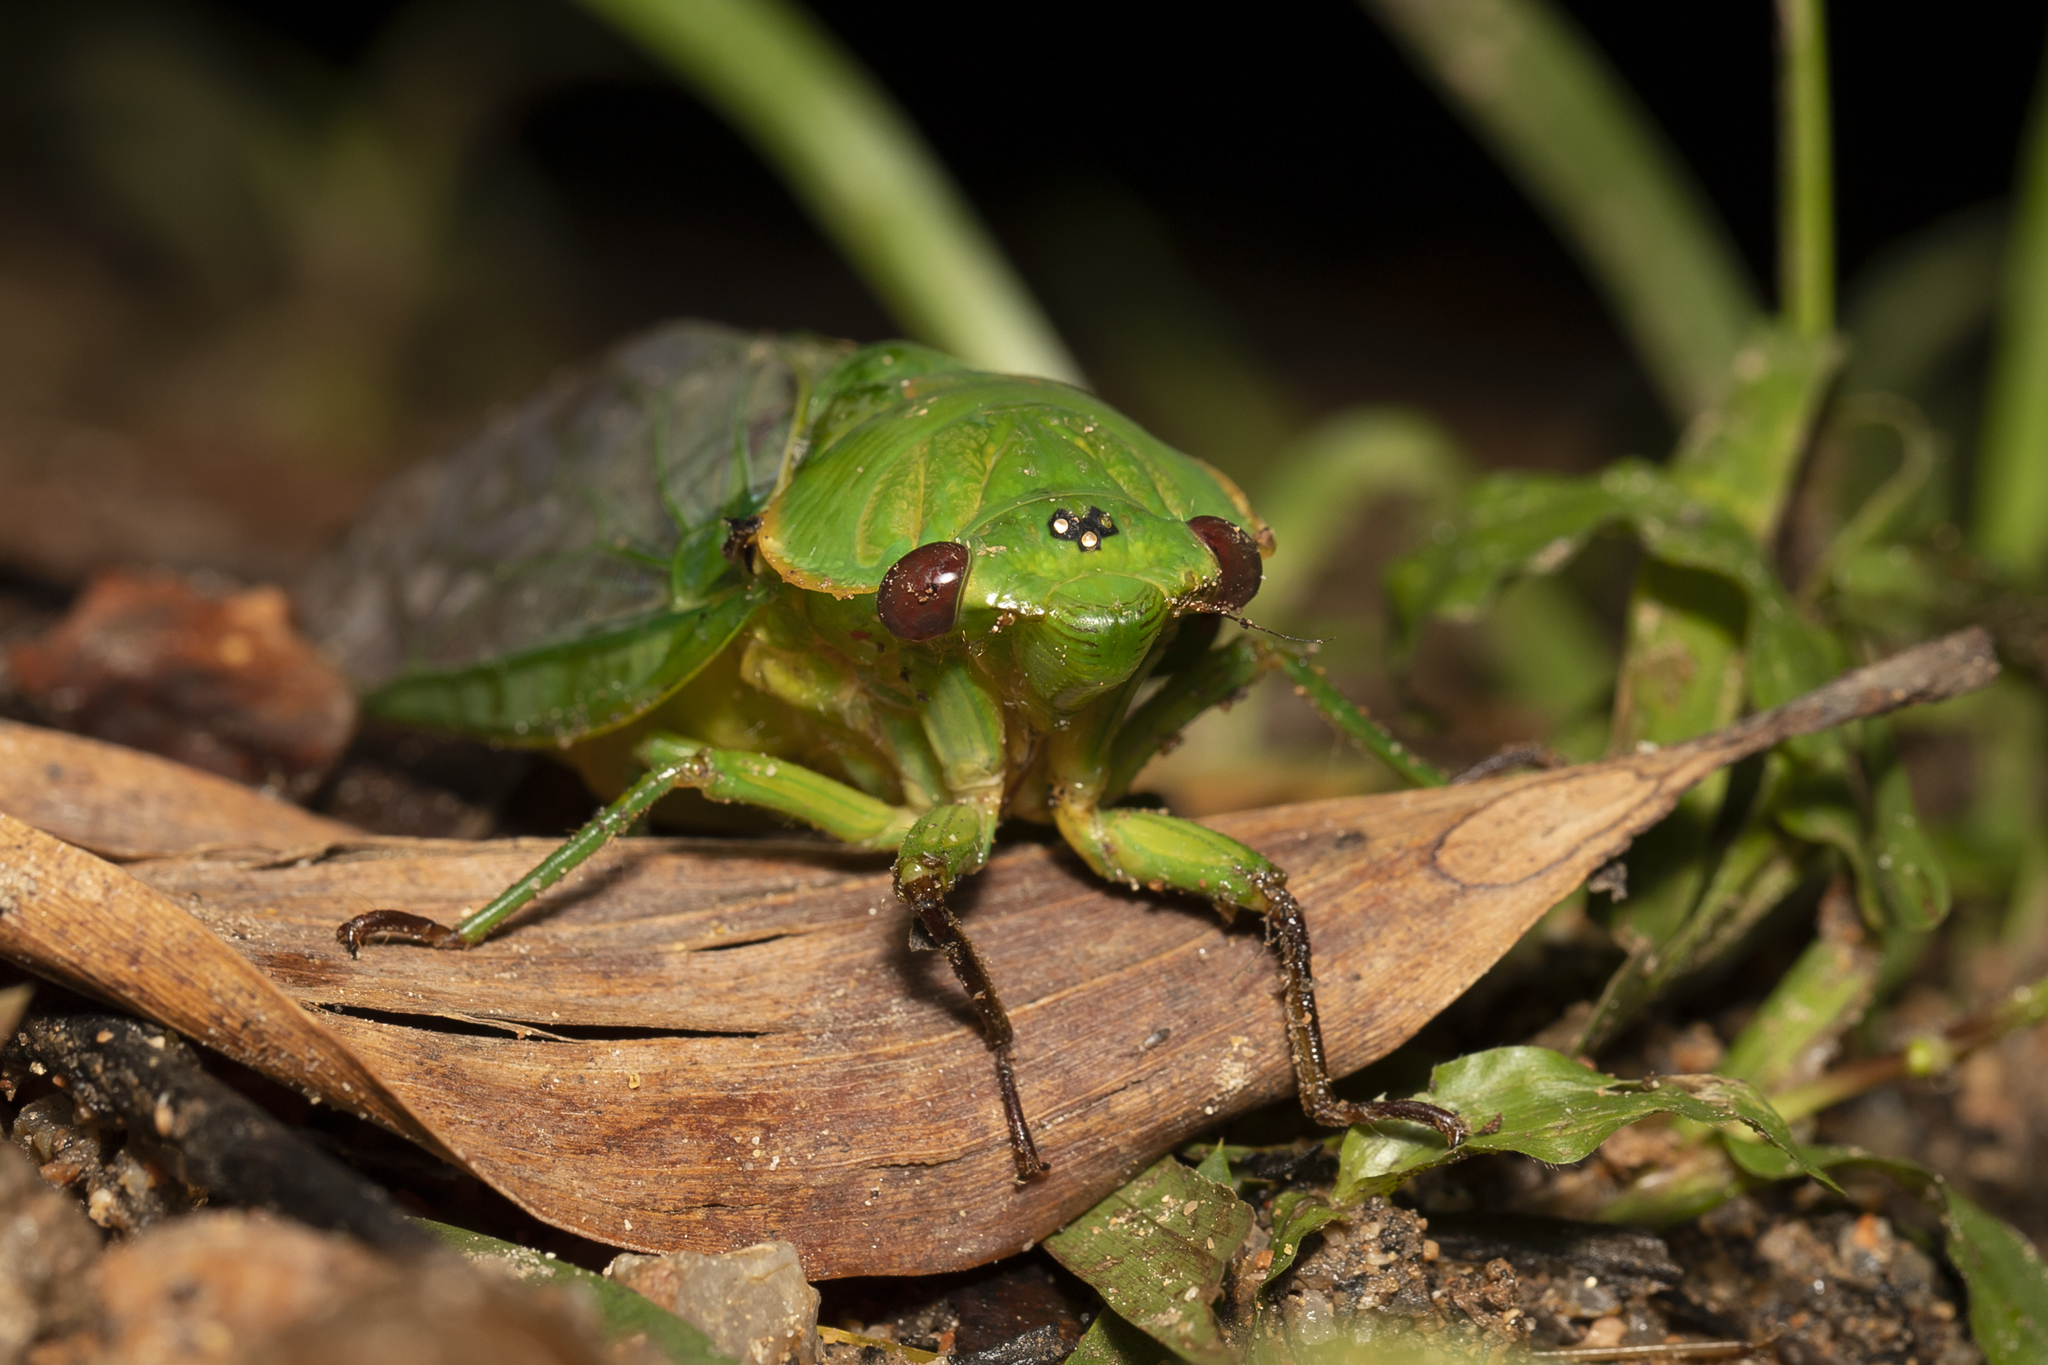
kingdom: Animalia
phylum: Arthropoda
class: Insecta
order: Hemiptera
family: Cicadidae
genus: Cyclochila
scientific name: Cyclochila virens
